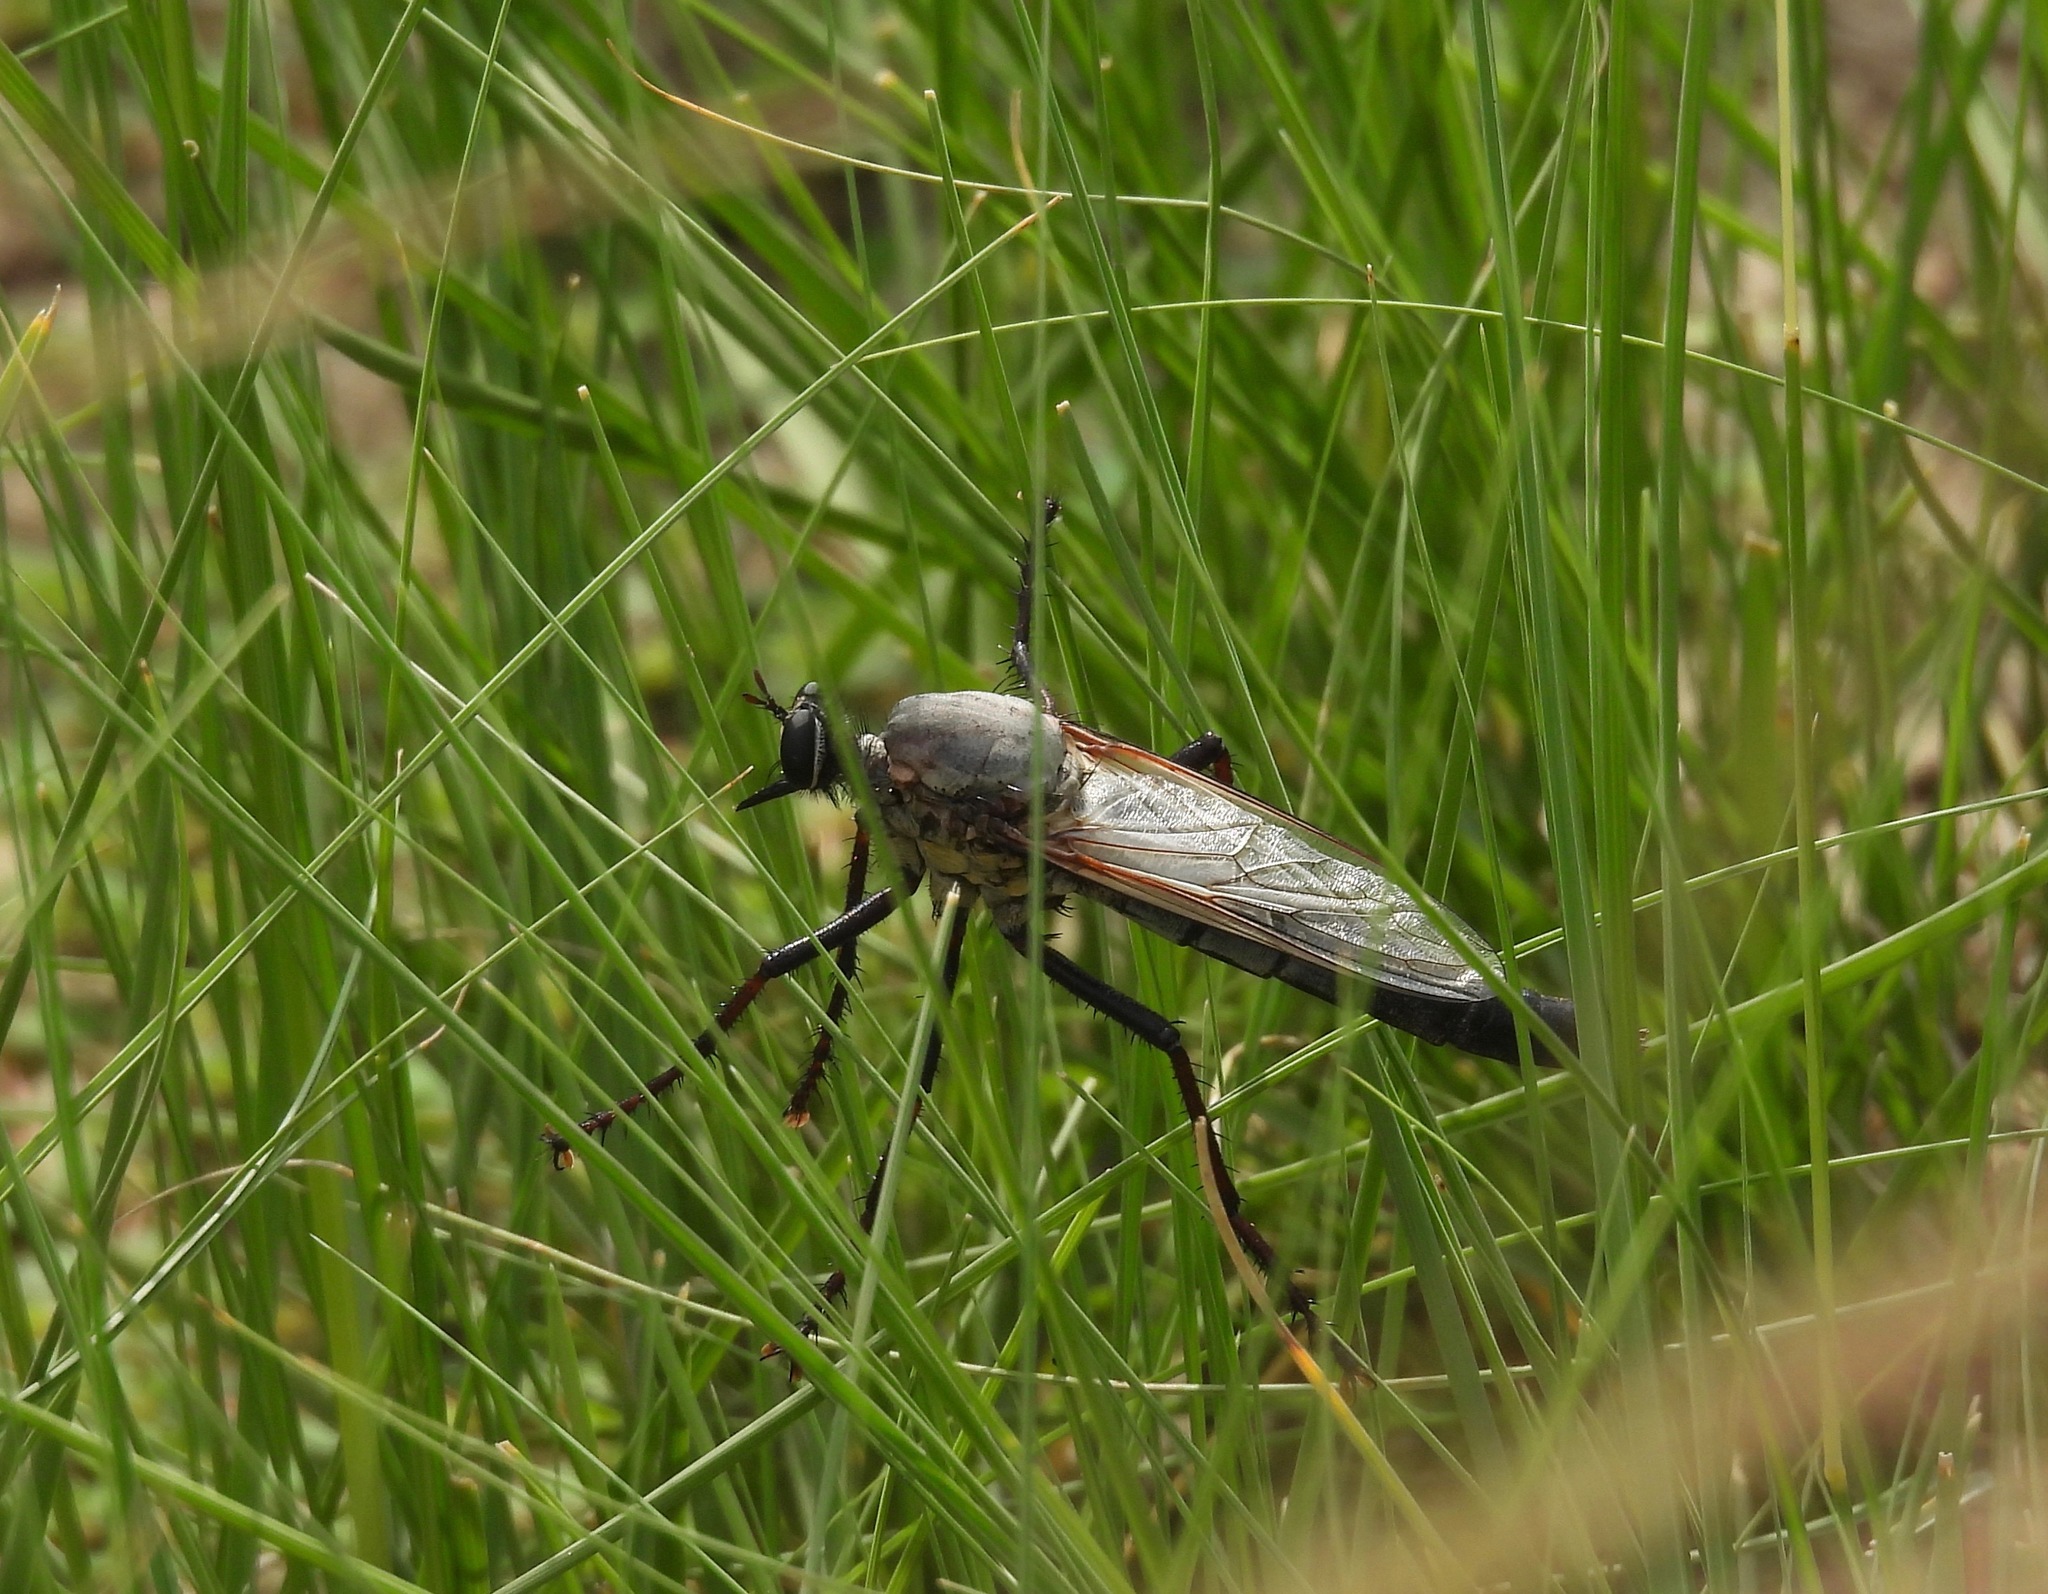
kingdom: Animalia
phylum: Arthropoda
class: Insecta
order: Diptera
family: Asilidae
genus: Microstylum
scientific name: Microstylum galactodes
